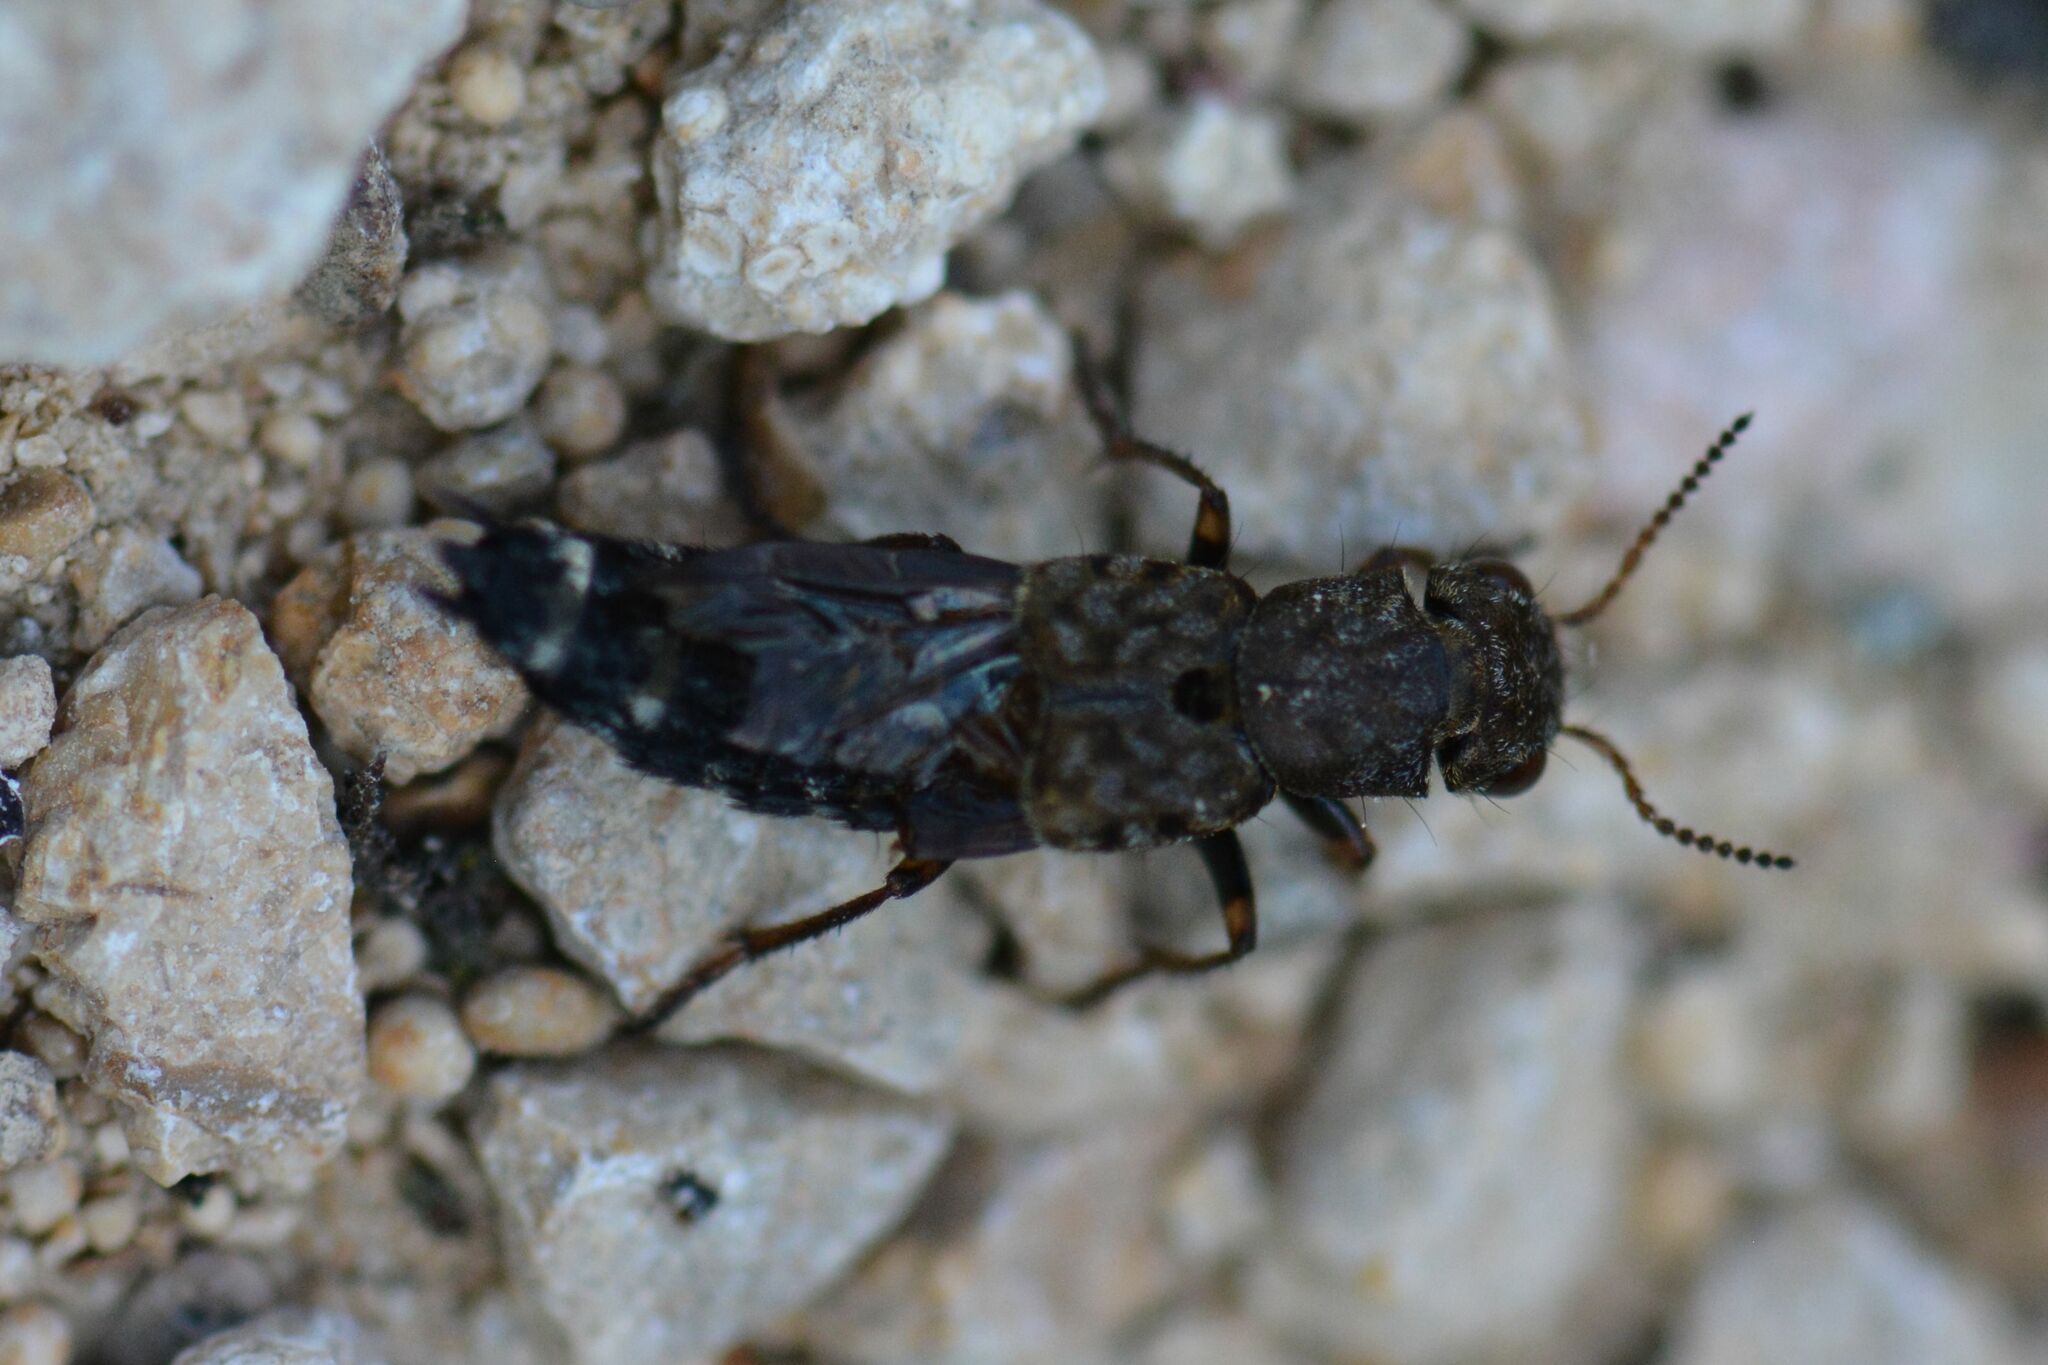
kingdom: Animalia
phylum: Arthropoda
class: Insecta
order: Coleoptera
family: Staphylinidae
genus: Ontholestes
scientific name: Ontholestes haroldi
